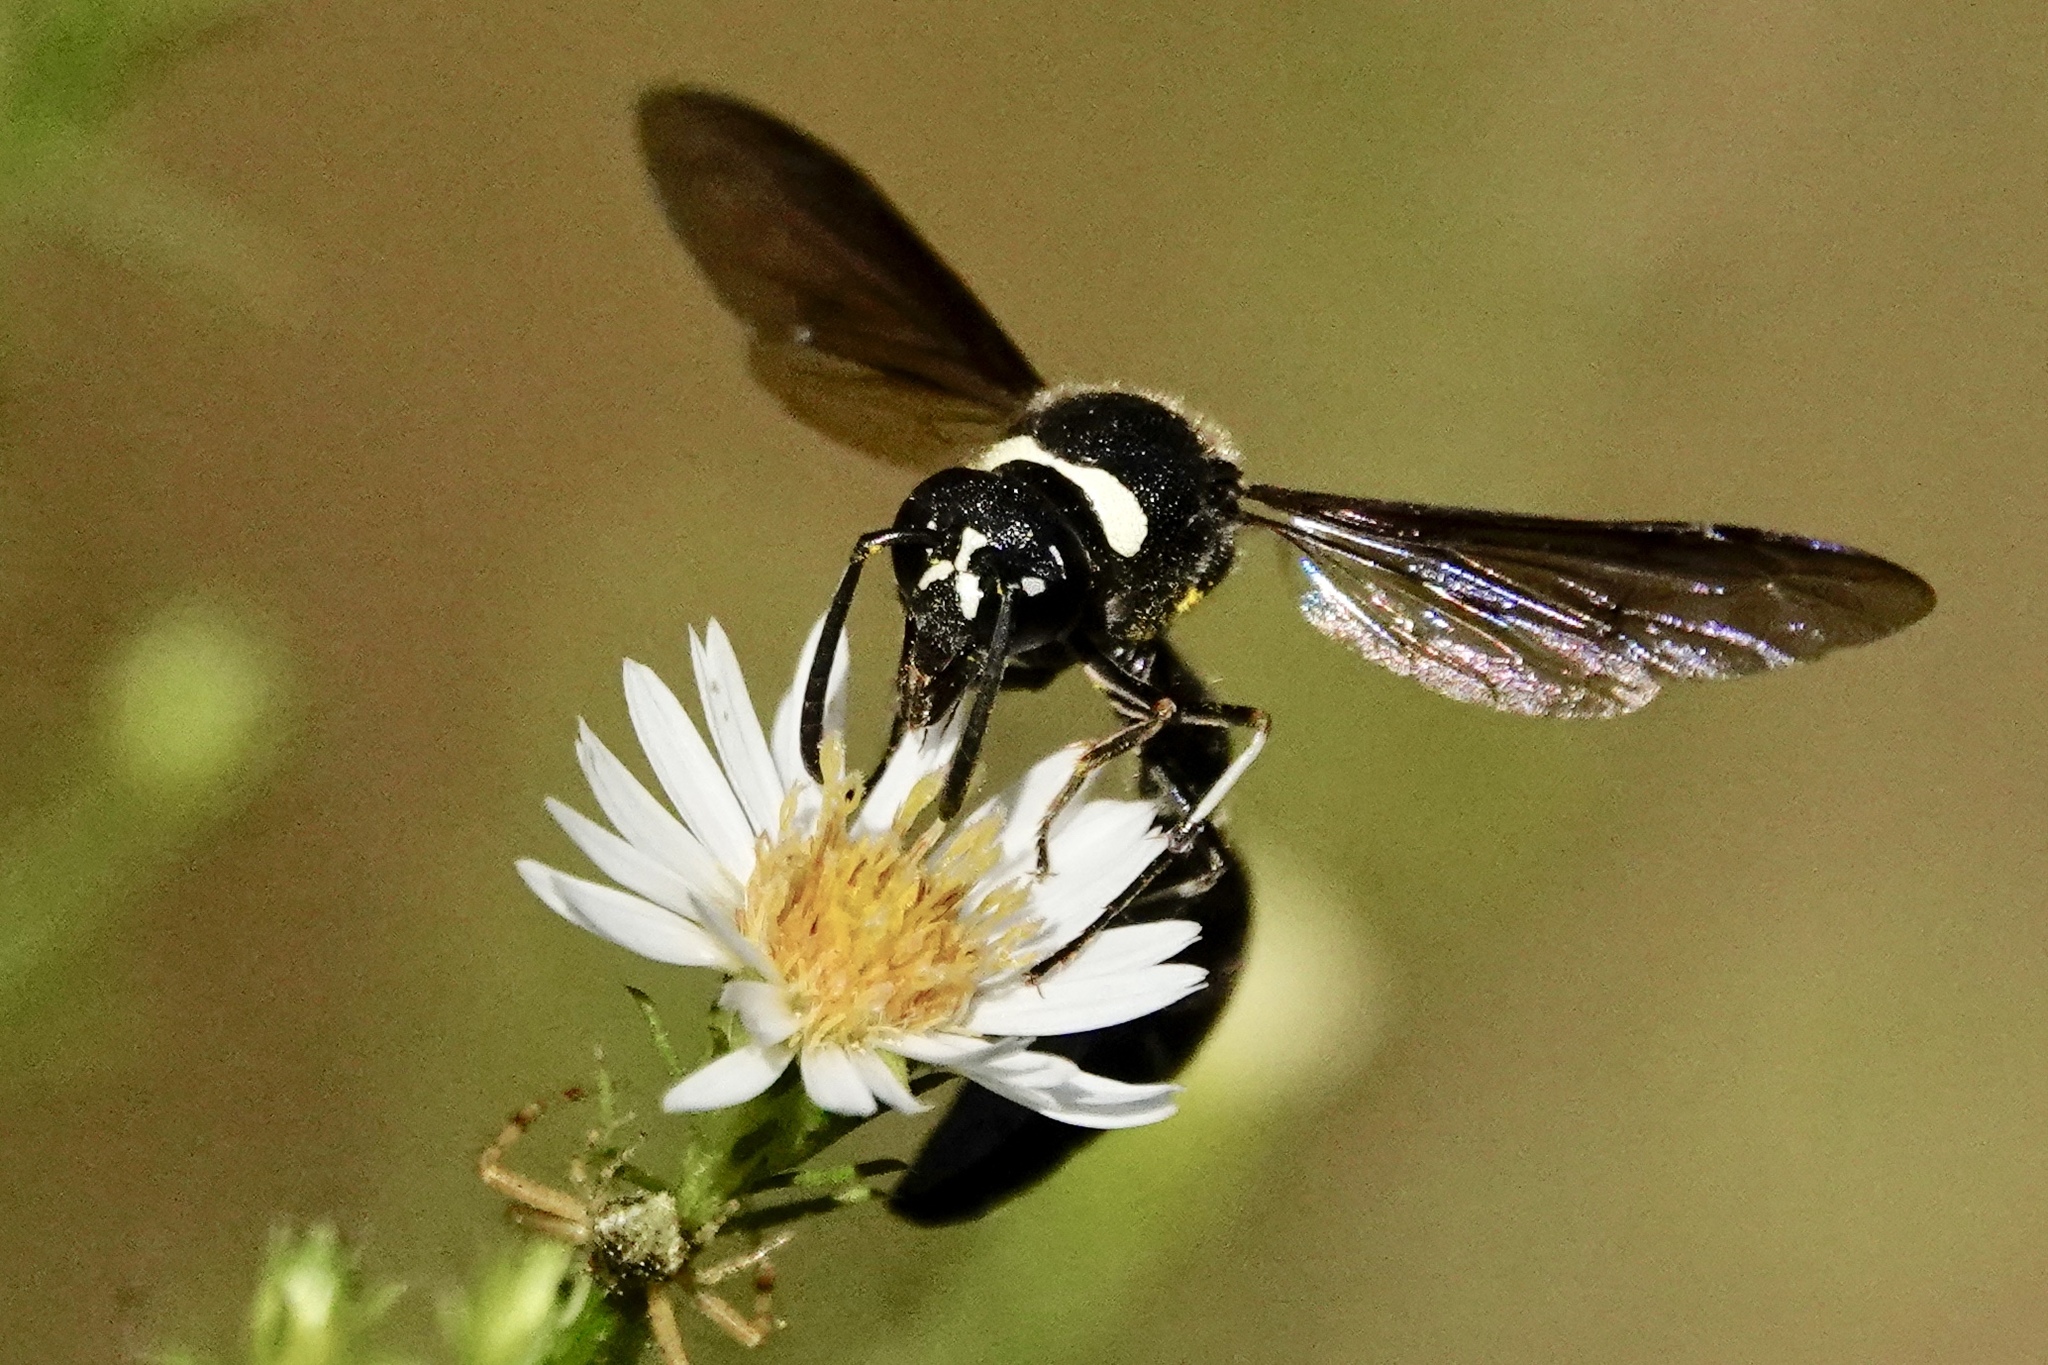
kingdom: Animalia
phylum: Arthropoda
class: Insecta
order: Hymenoptera
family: Vespidae
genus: Eumenes
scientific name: Eumenes fraternus
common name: Fraternal potter wasp
